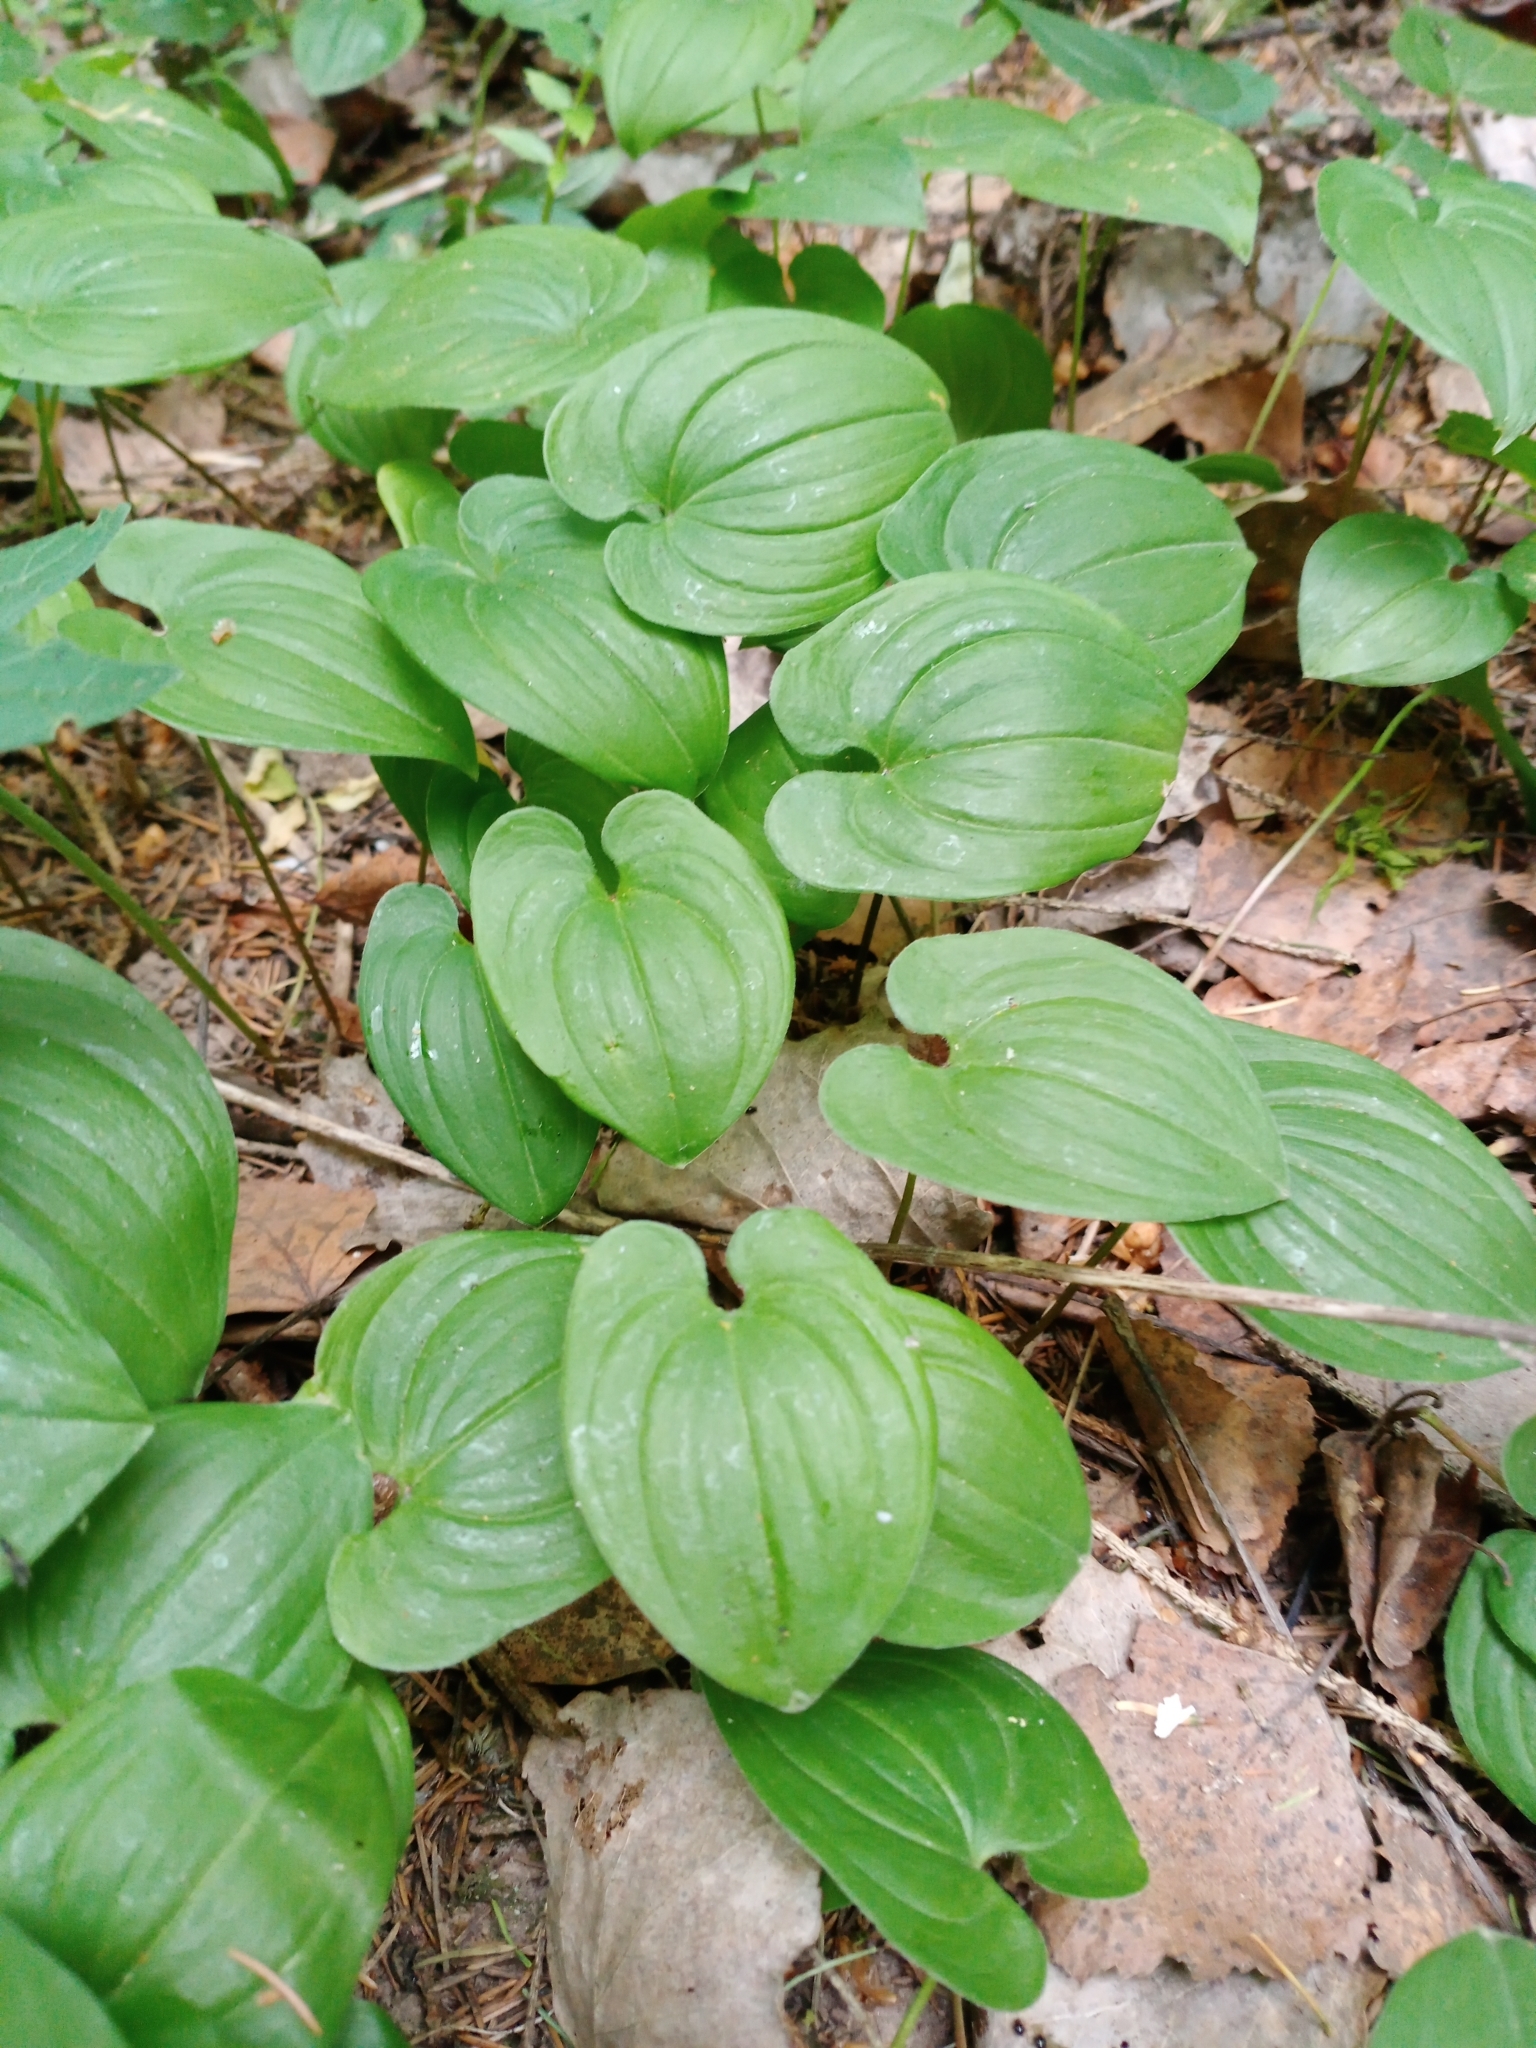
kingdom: Plantae
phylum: Tracheophyta
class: Liliopsida
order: Asparagales
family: Asparagaceae
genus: Maianthemum
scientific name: Maianthemum bifolium
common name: May lily
